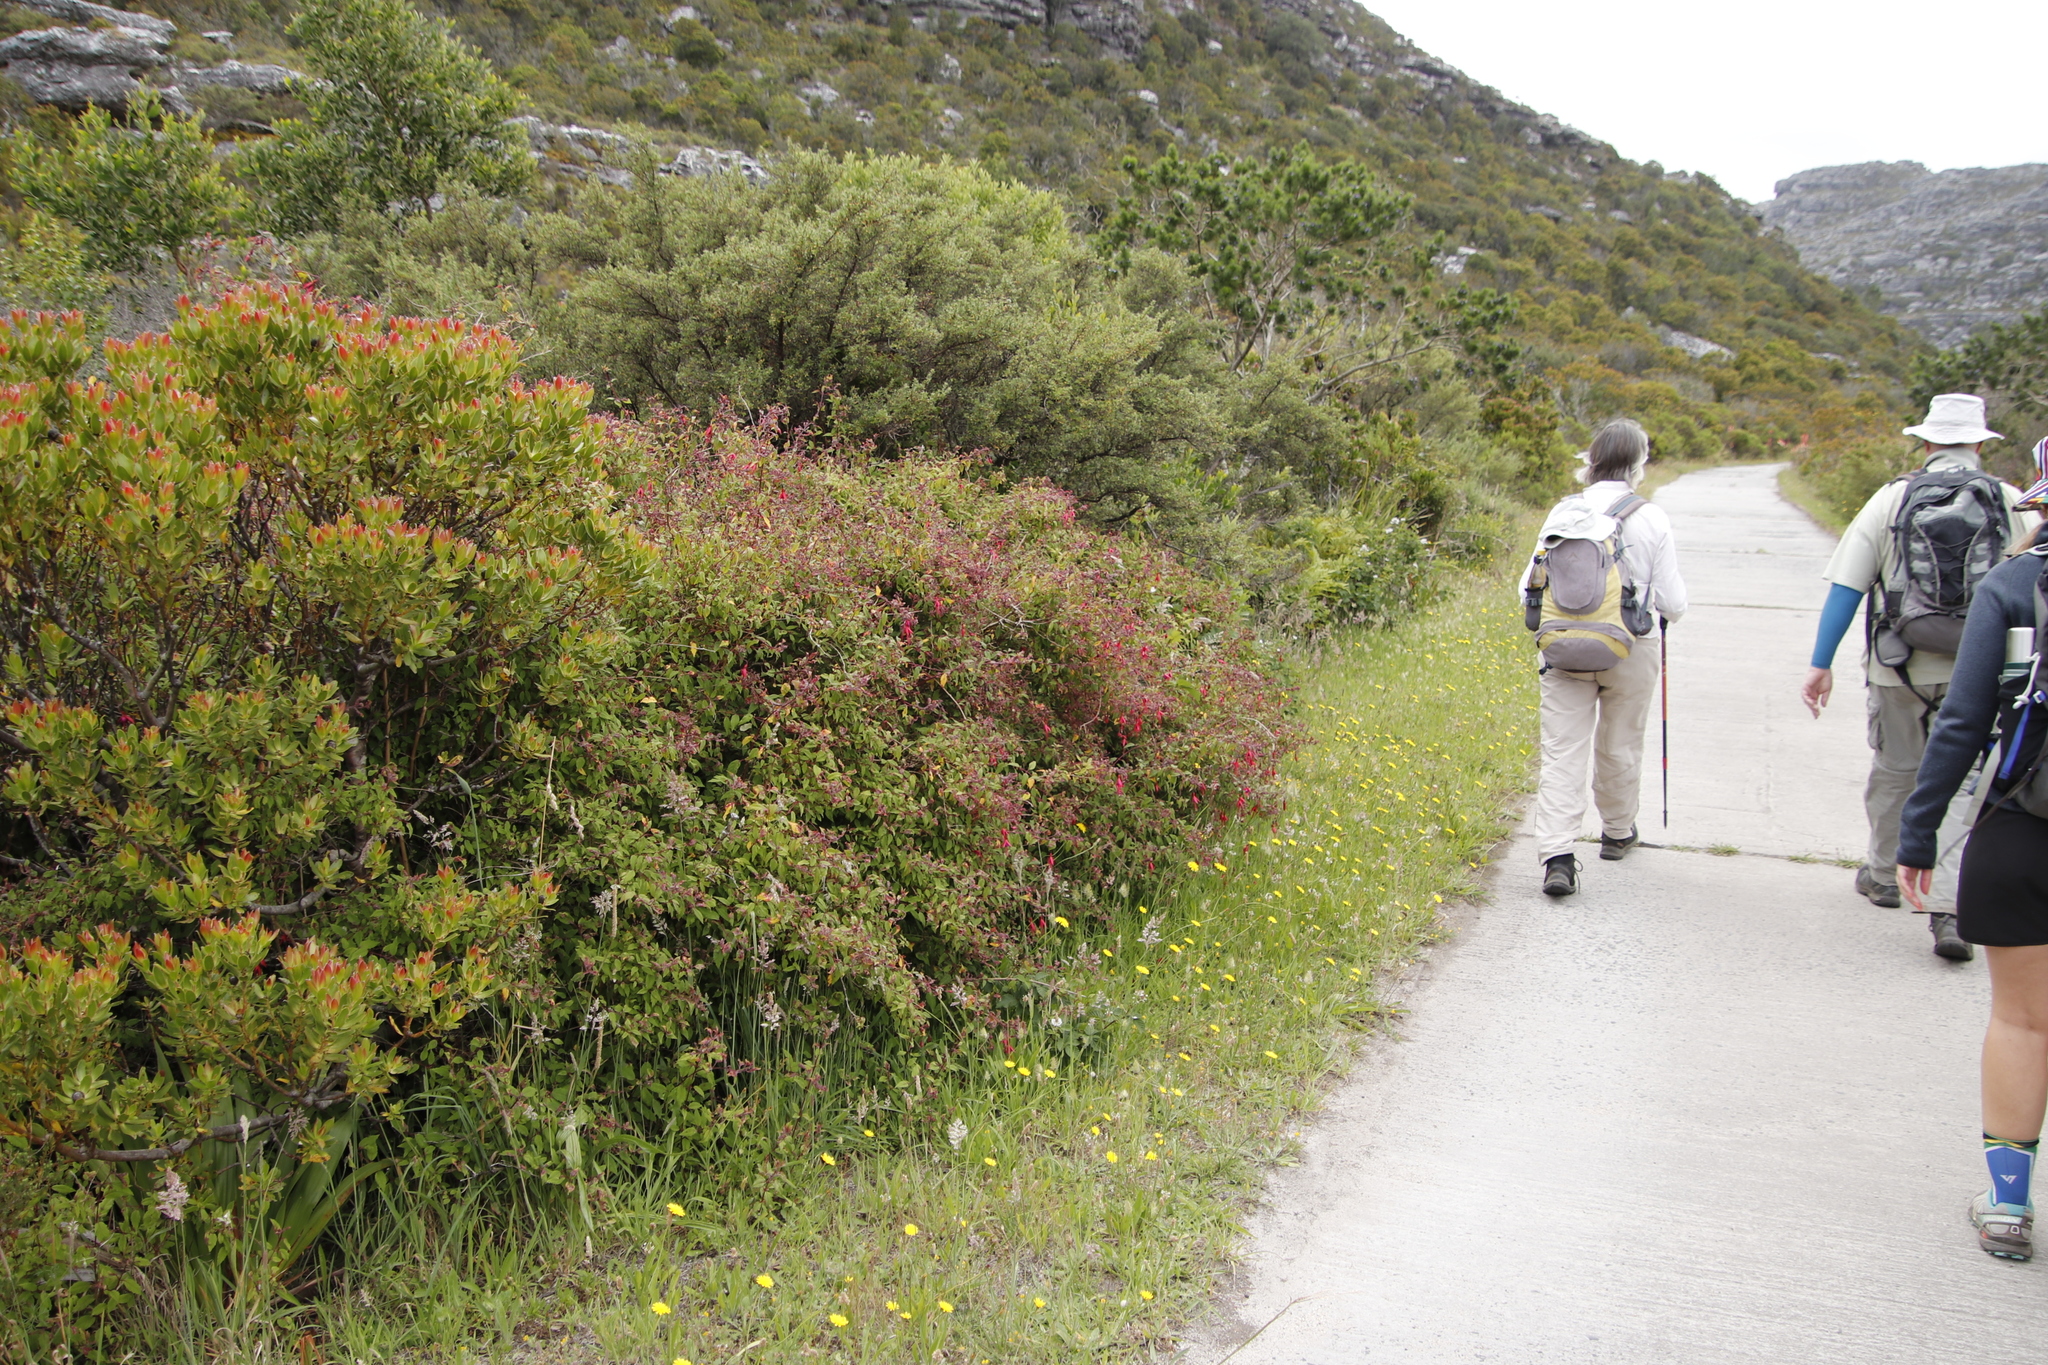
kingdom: Plantae
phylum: Tracheophyta
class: Magnoliopsida
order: Myrtales
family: Onagraceae
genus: Fuchsia
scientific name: Fuchsia magellanica
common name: Hardy fuchsia
